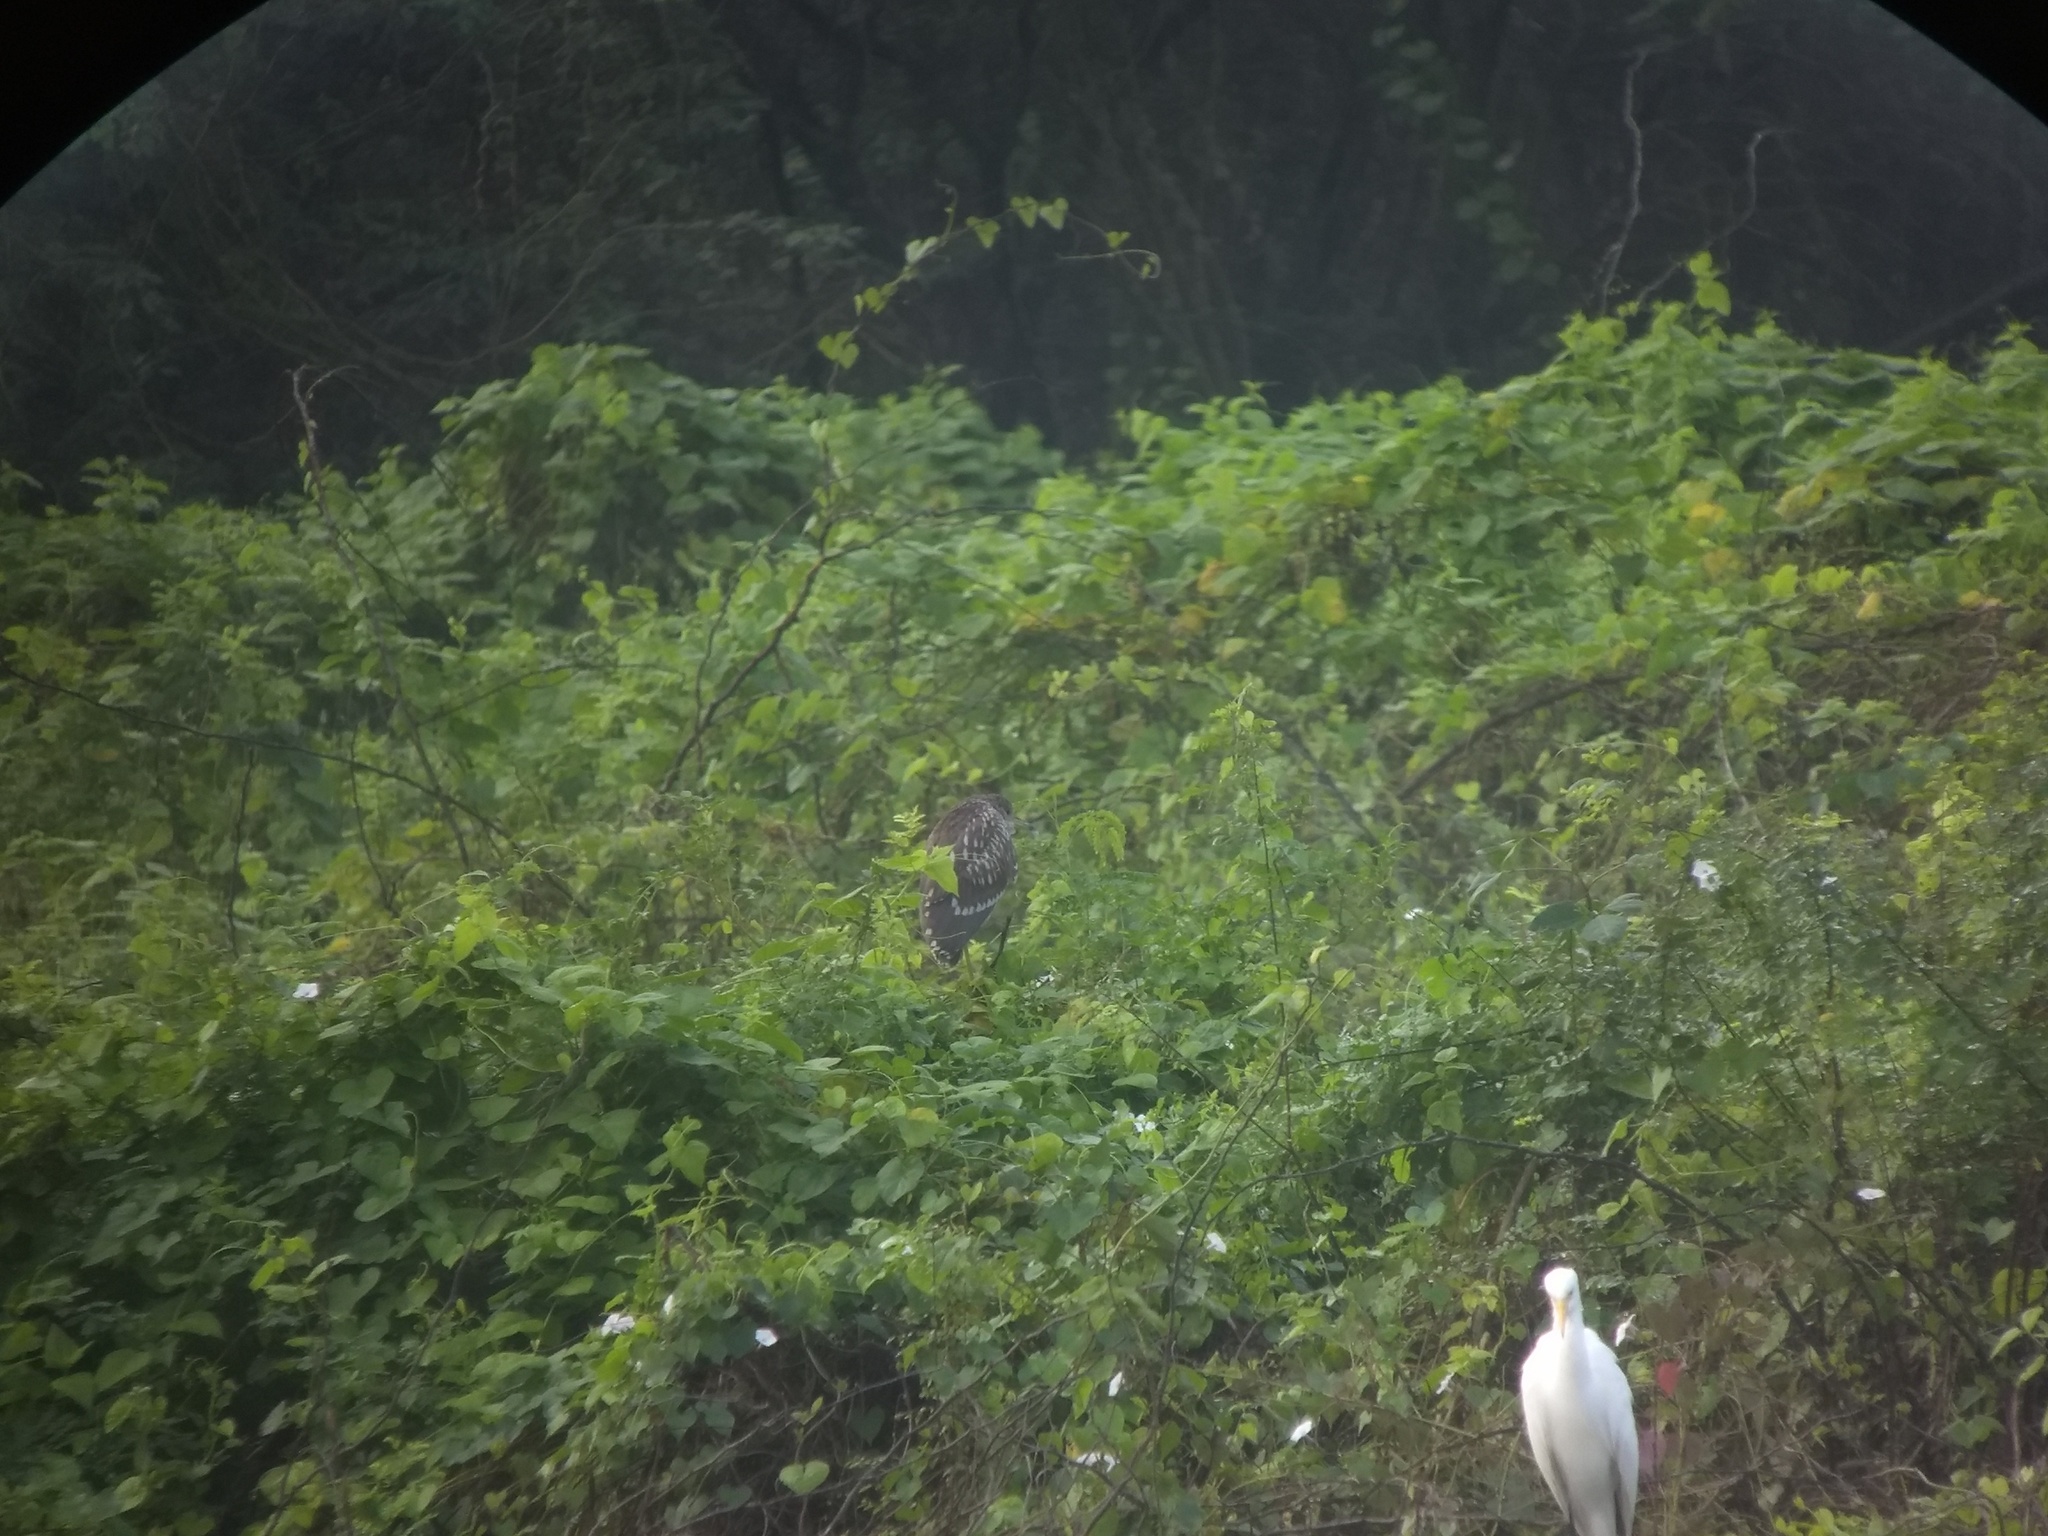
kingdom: Animalia
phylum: Chordata
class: Aves
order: Pelecaniformes
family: Ardeidae
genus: Nycticorax
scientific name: Nycticorax nycticorax
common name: Black-crowned night heron
